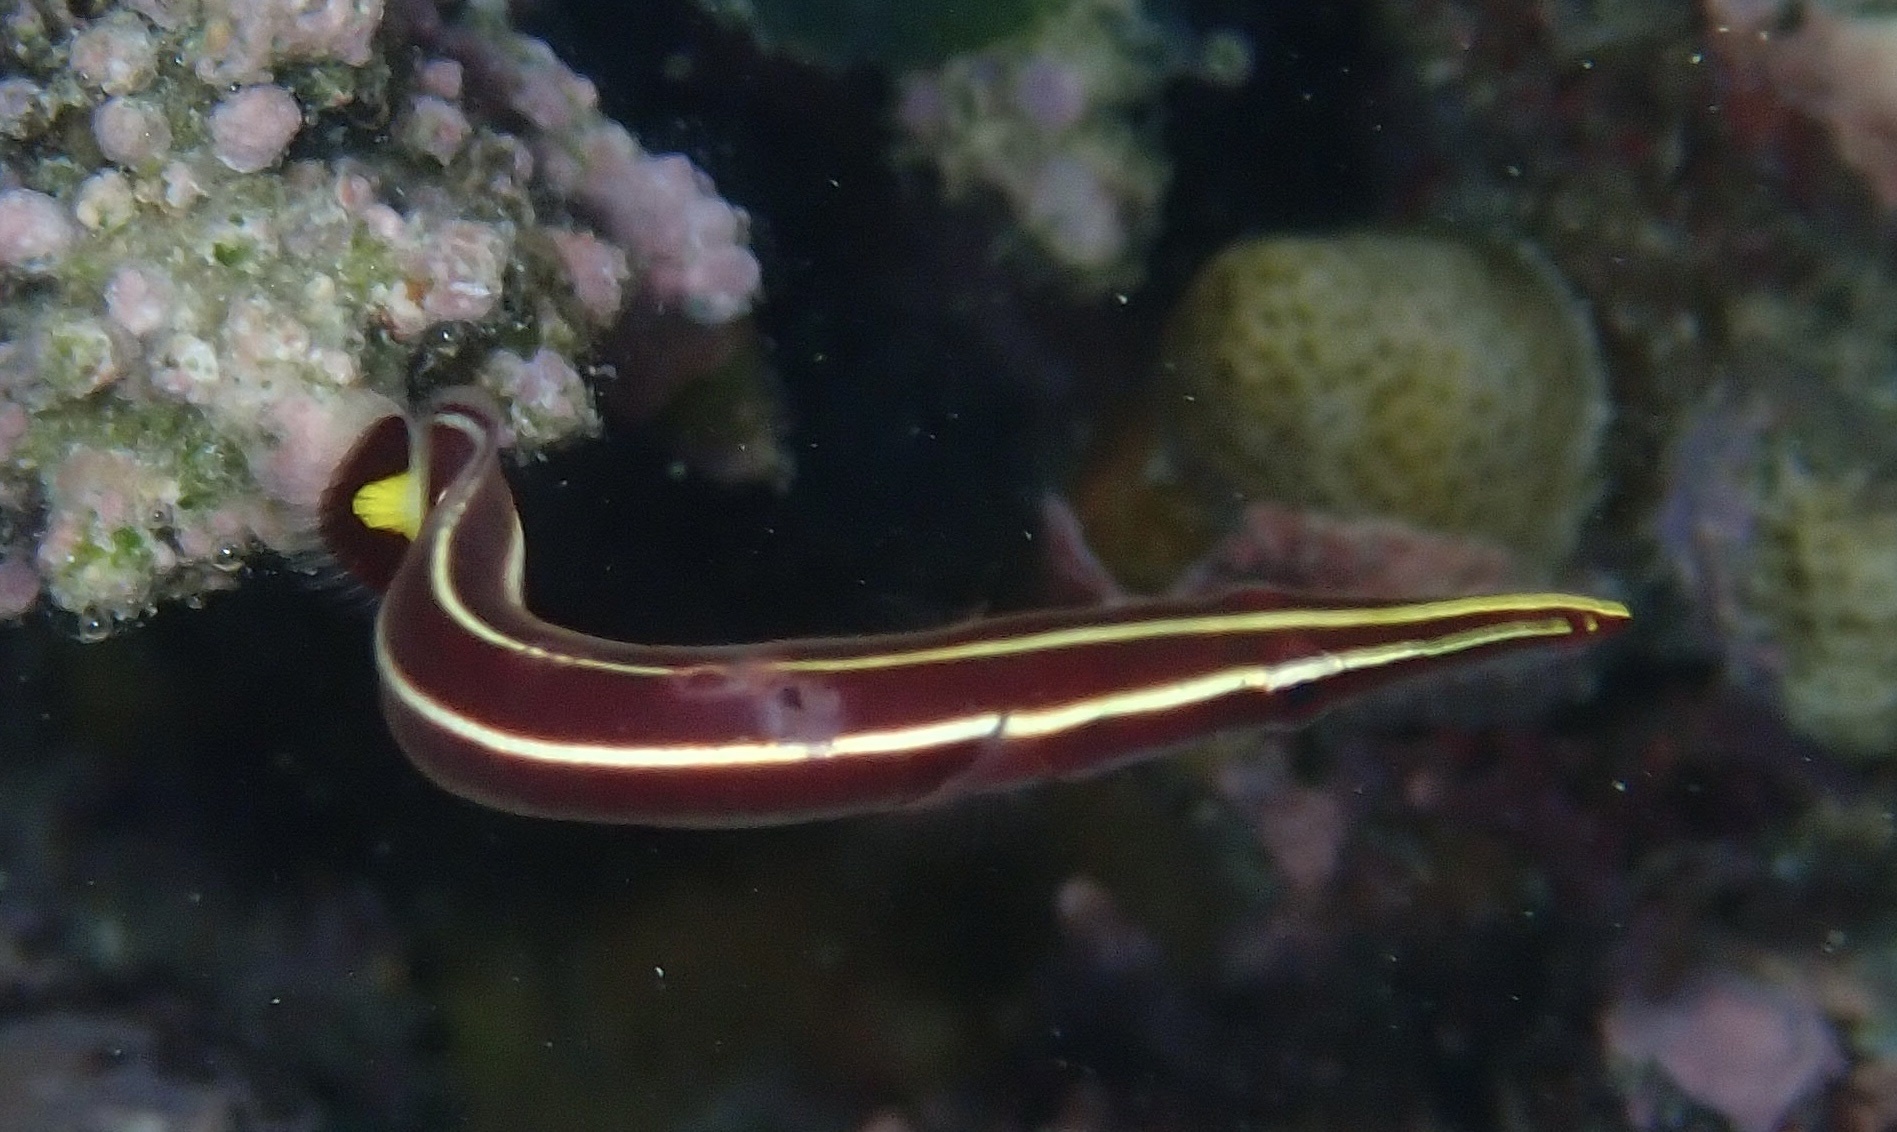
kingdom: Animalia
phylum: Chordata
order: Gobiesociformes
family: Gobiesocidae
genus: Diademichthys
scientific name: Diademichthys lineatus
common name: Urchin clingfish
